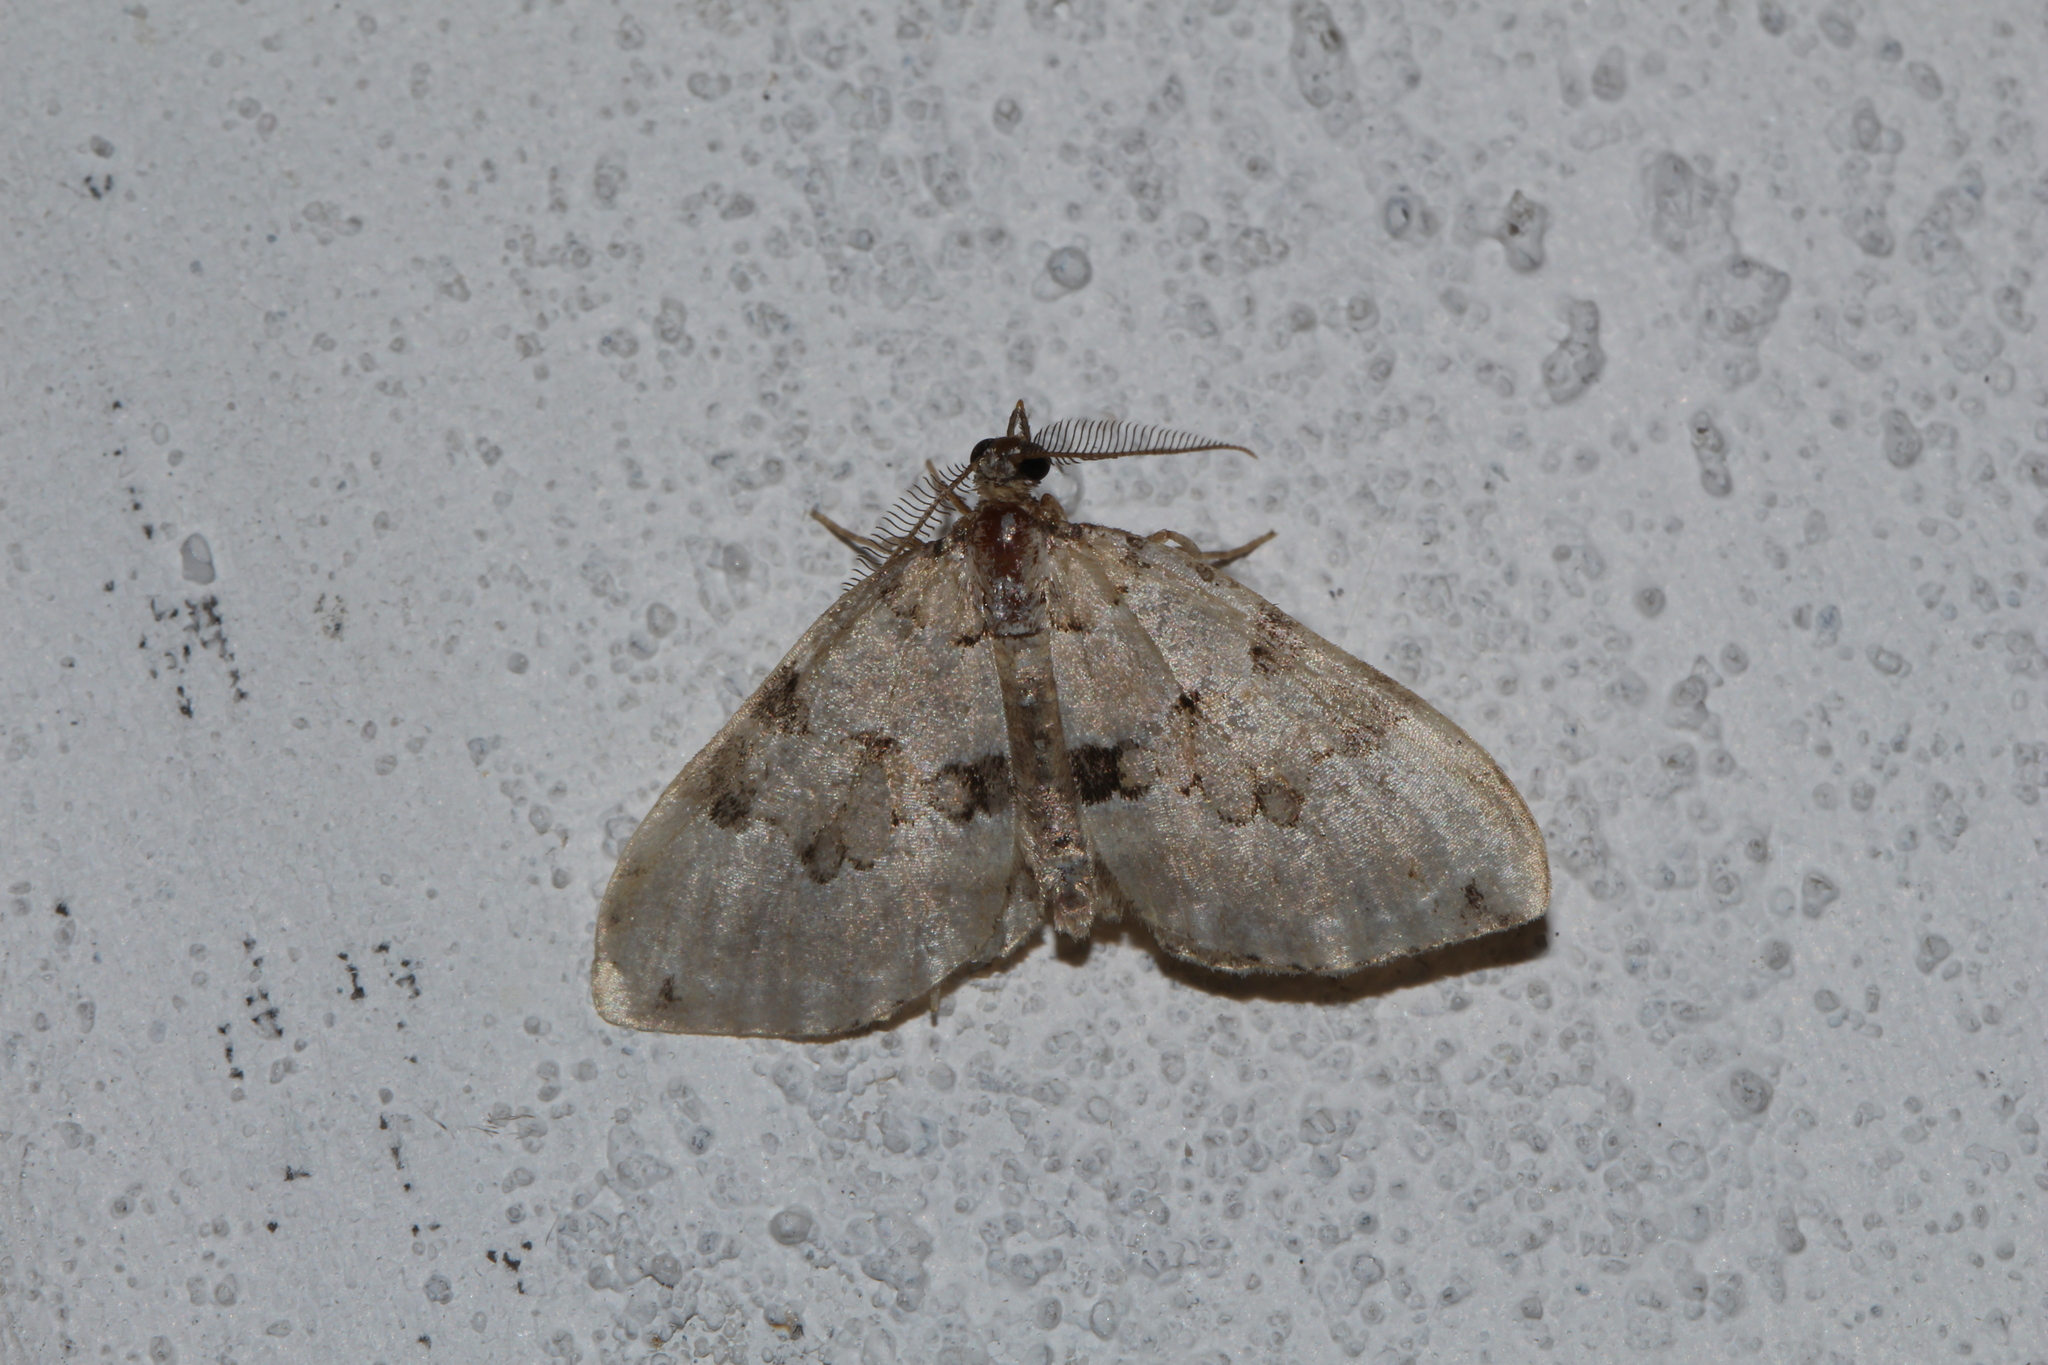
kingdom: Animalia
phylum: Arthropoda
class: Insecta
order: Lepidoptera
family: Geometridae
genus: Colostygia
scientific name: Colostygia pectinataria
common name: Green carpet
